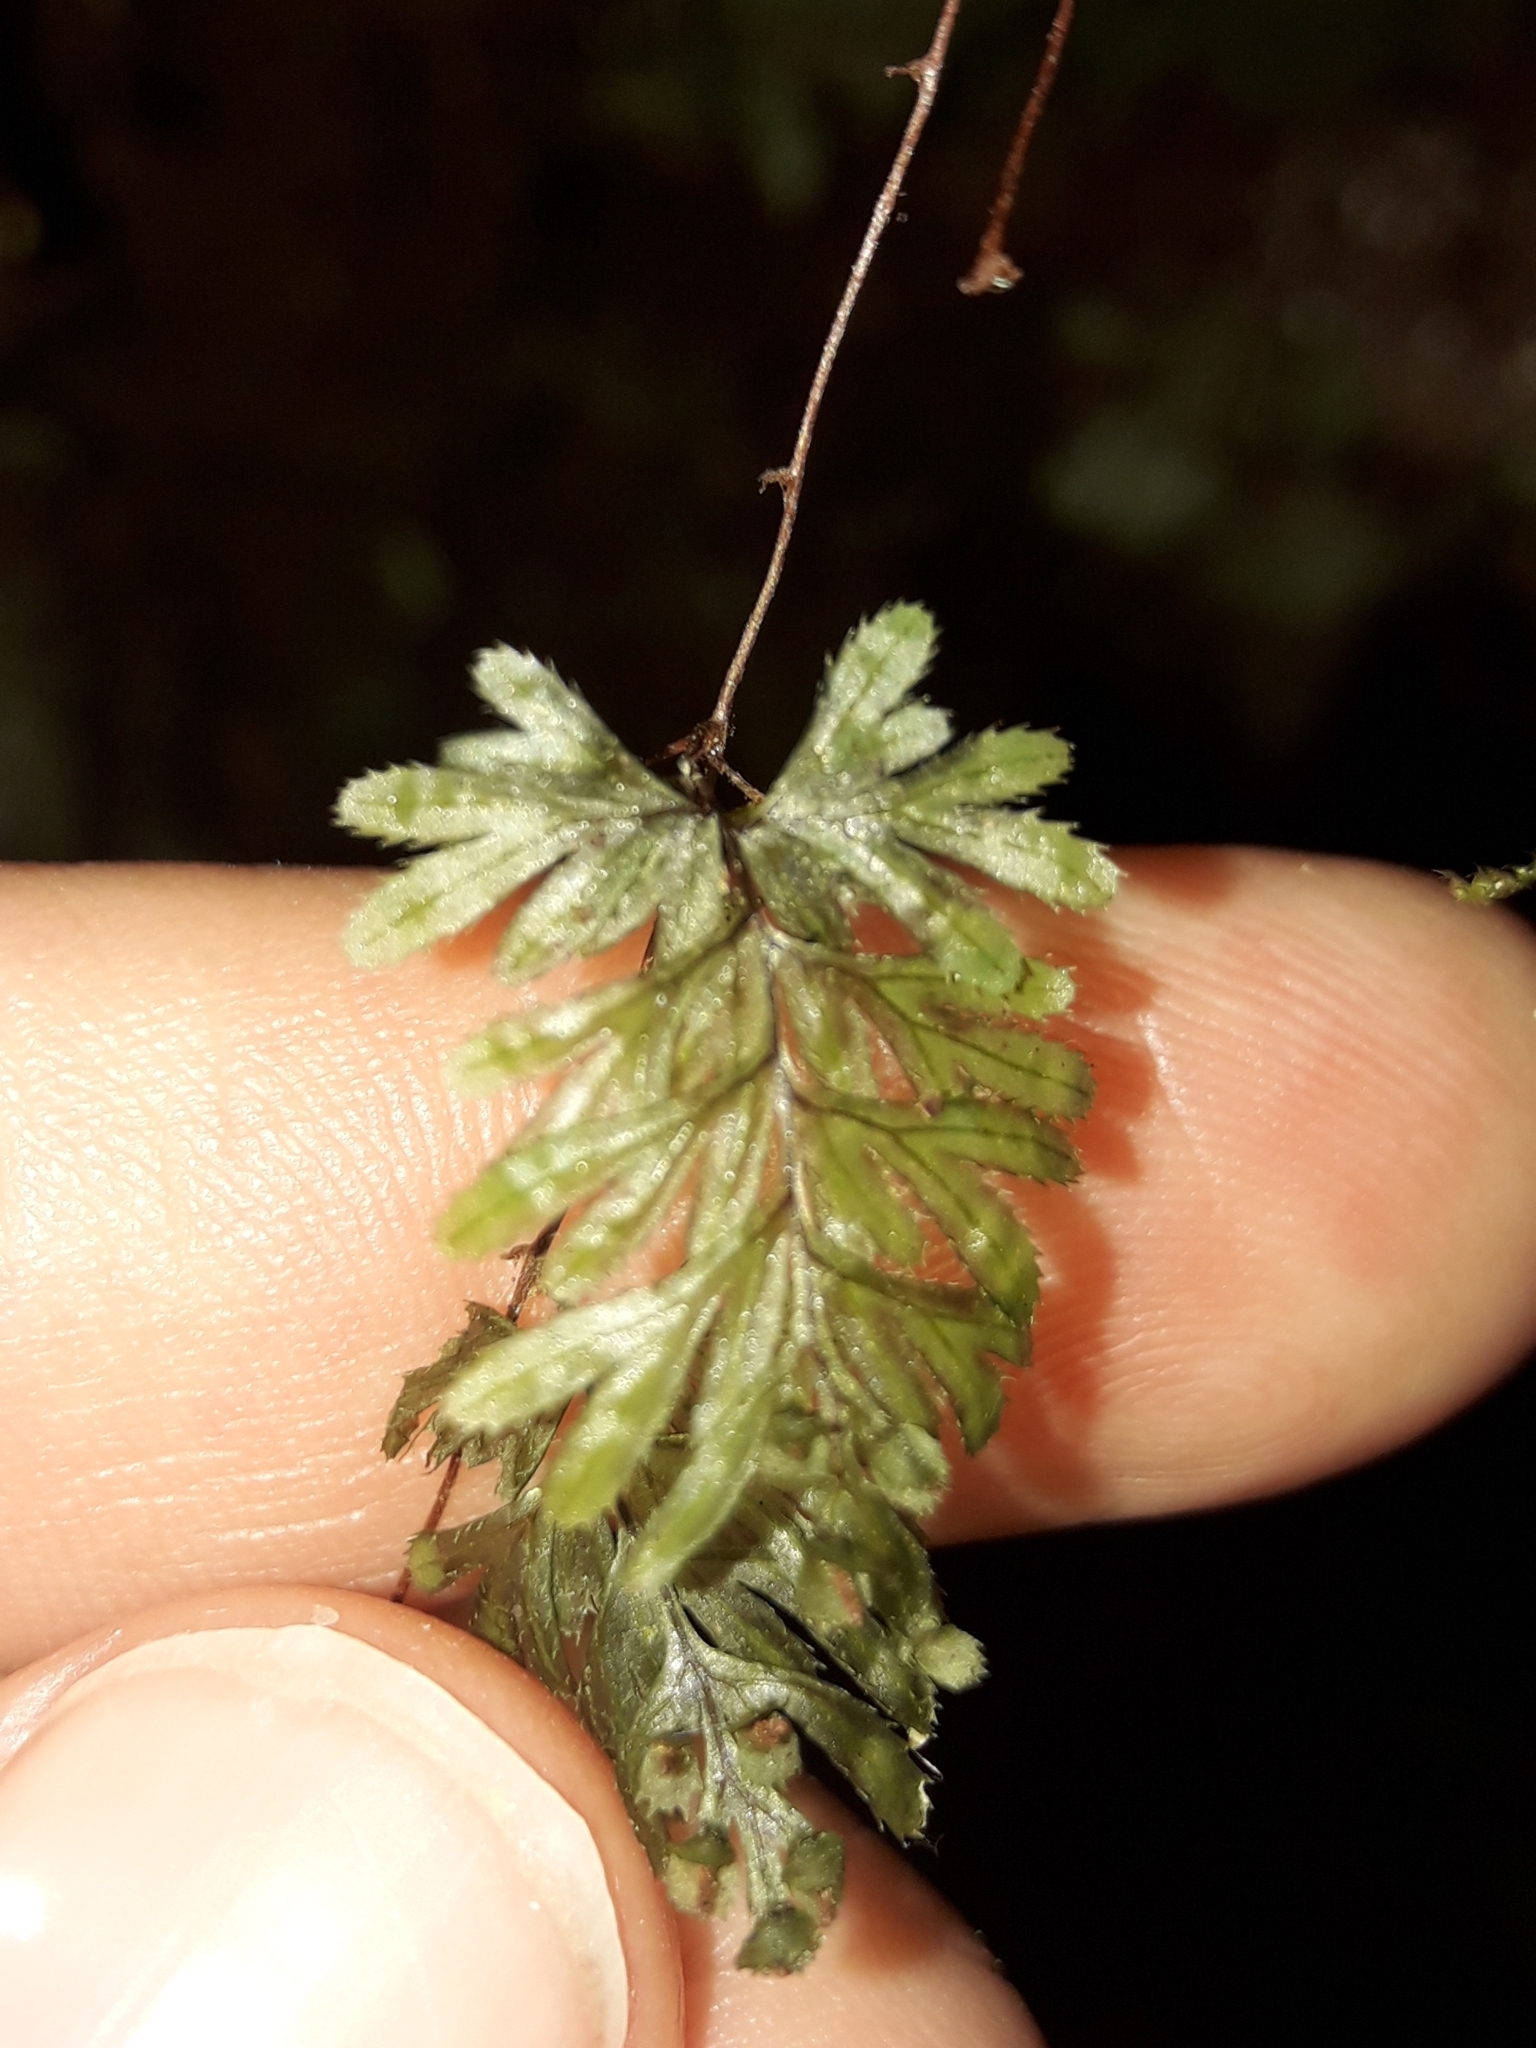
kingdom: Plantae
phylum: Tracheophyta
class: Polypodiopsida
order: Hymenophyllales
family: Hymenophyllaceae
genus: Hymenophyllum
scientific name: Hymenophyllum revolutum
